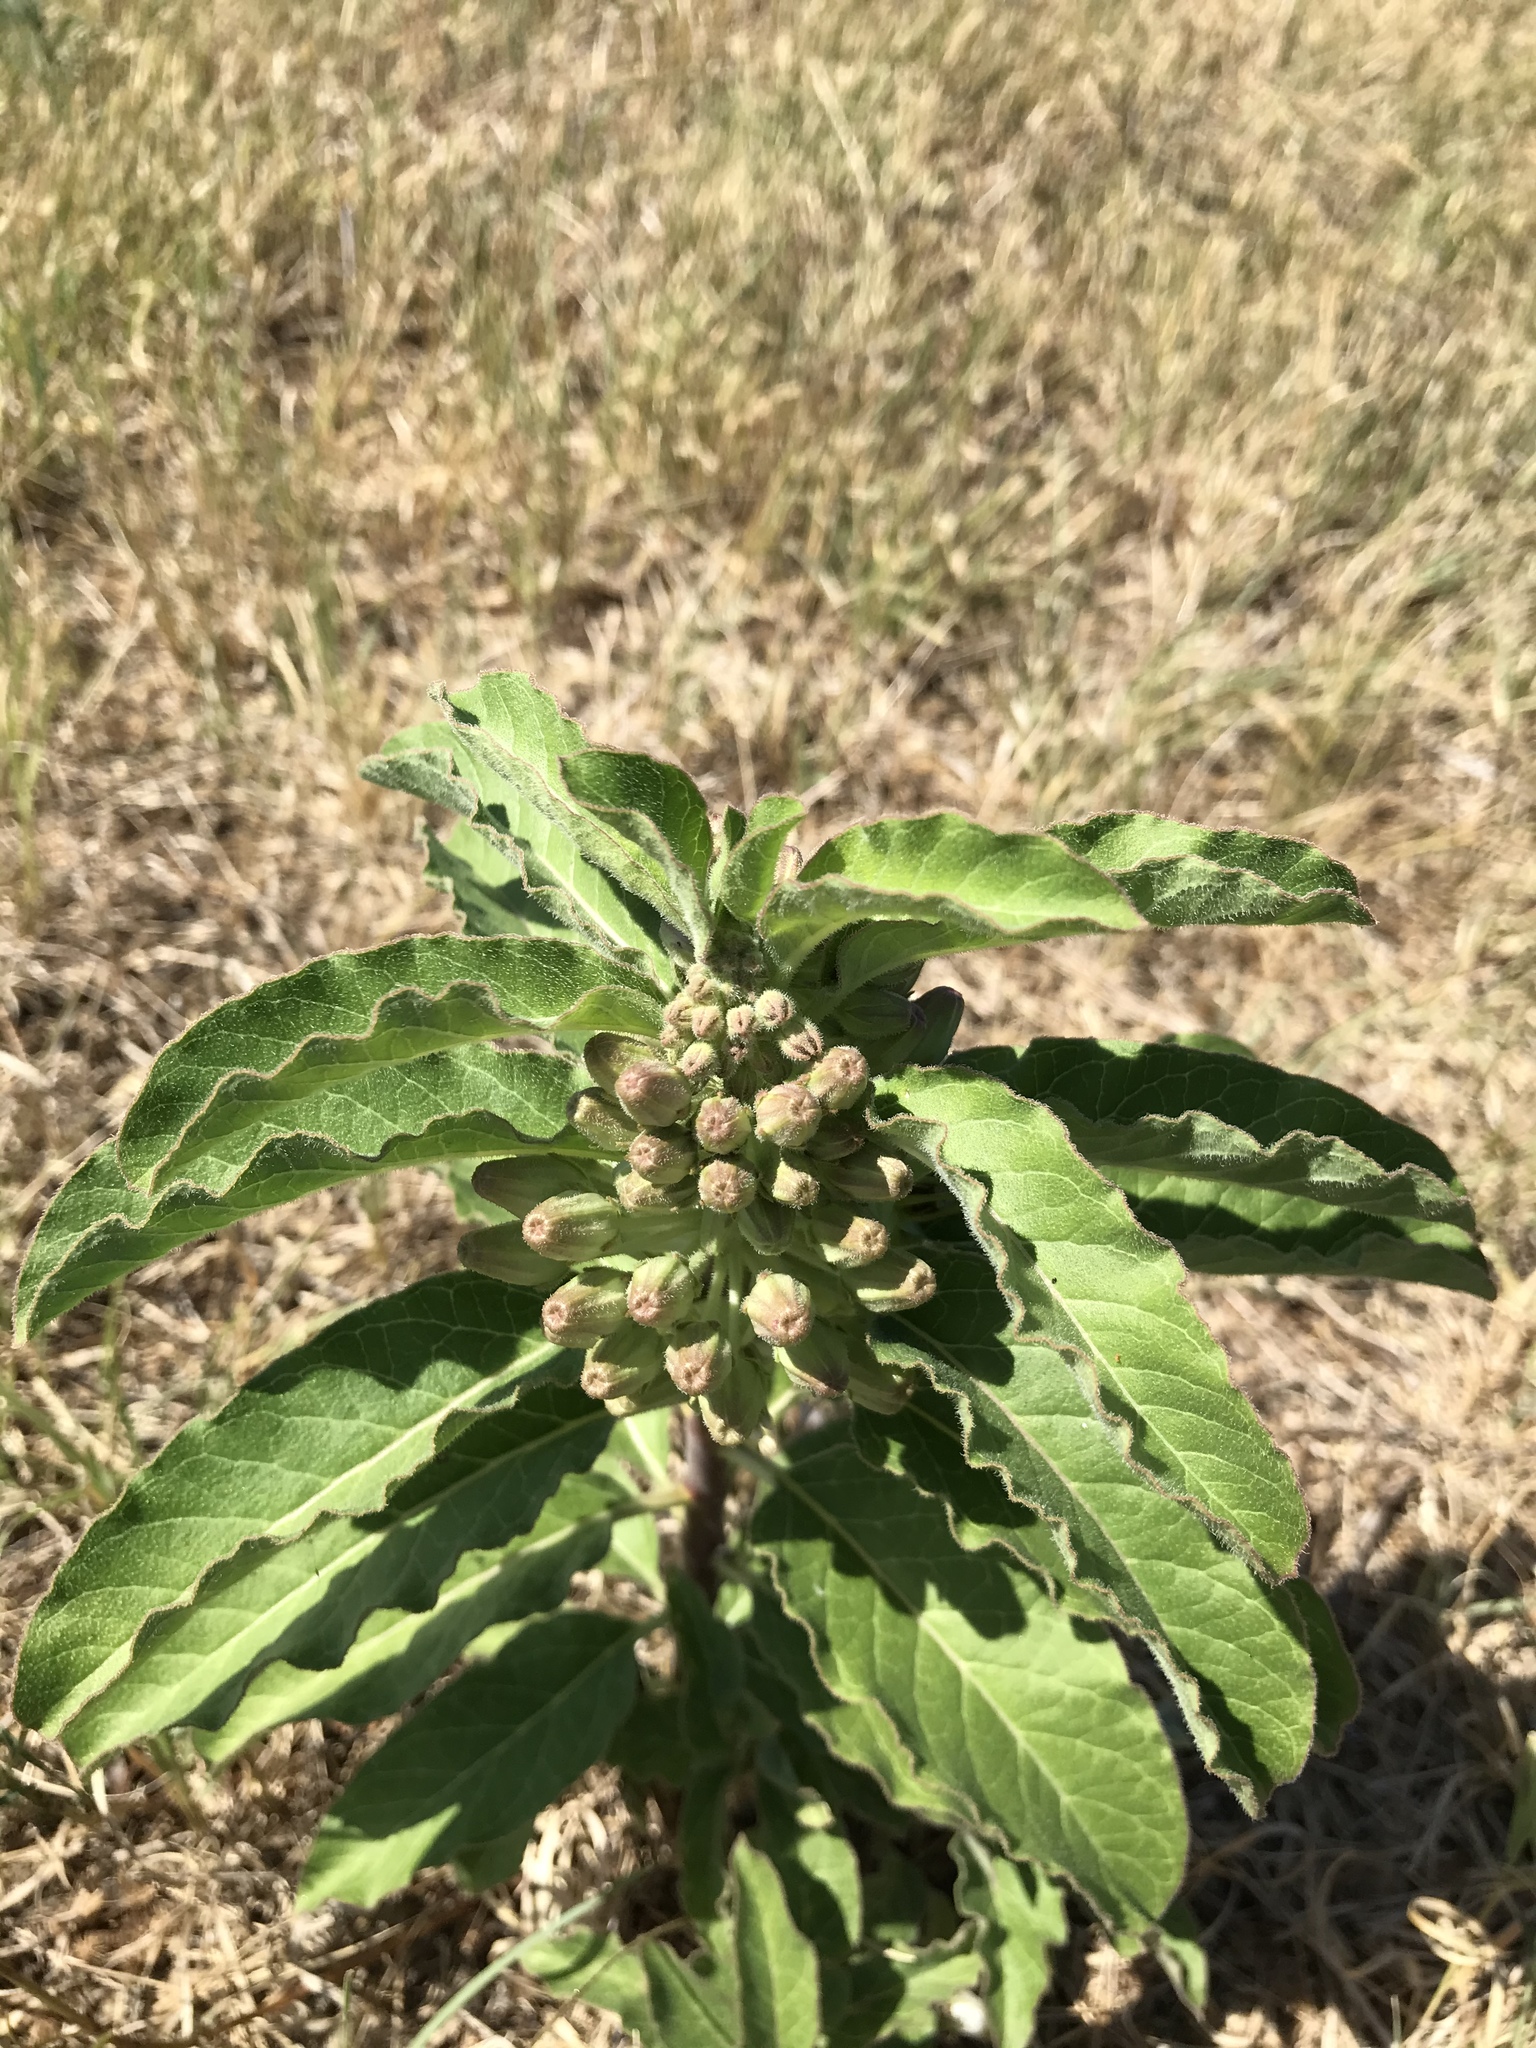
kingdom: Plantae
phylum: Tracheophyta
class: Magnoliopsida
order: Gentianales
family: Apocynaceae
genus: Asclepias
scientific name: Asclepias oenotheroides
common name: Zizotes milkweed
